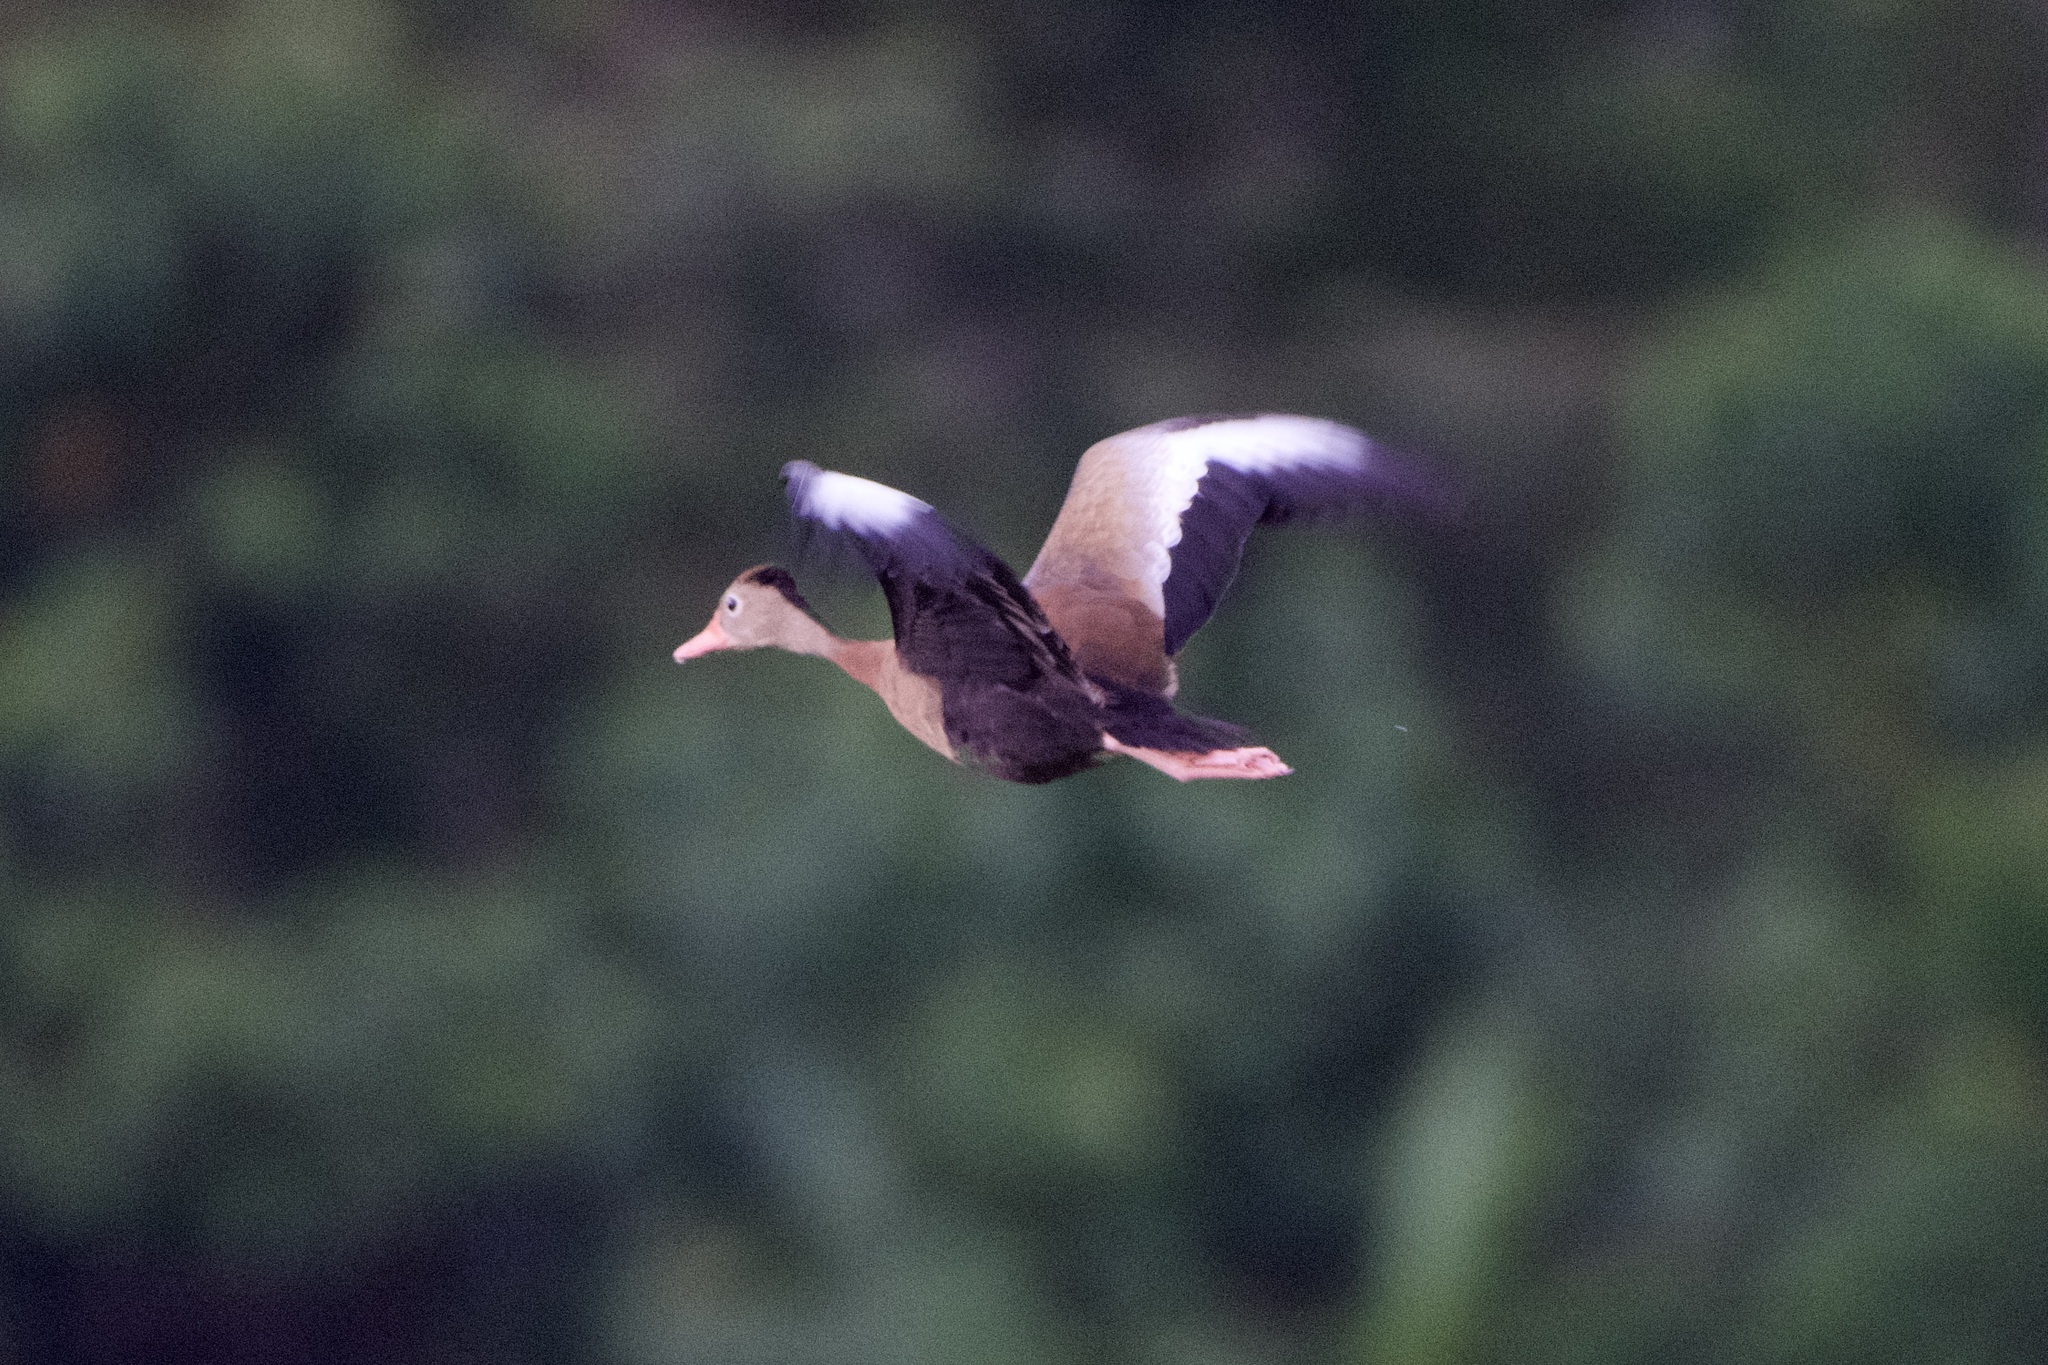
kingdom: Animalia
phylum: Chordata
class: Aves
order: Anseriformes
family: Anatidae
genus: Dendrocygna
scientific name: Dendrocygna autumnalis
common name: Black-bellied whistling duck
